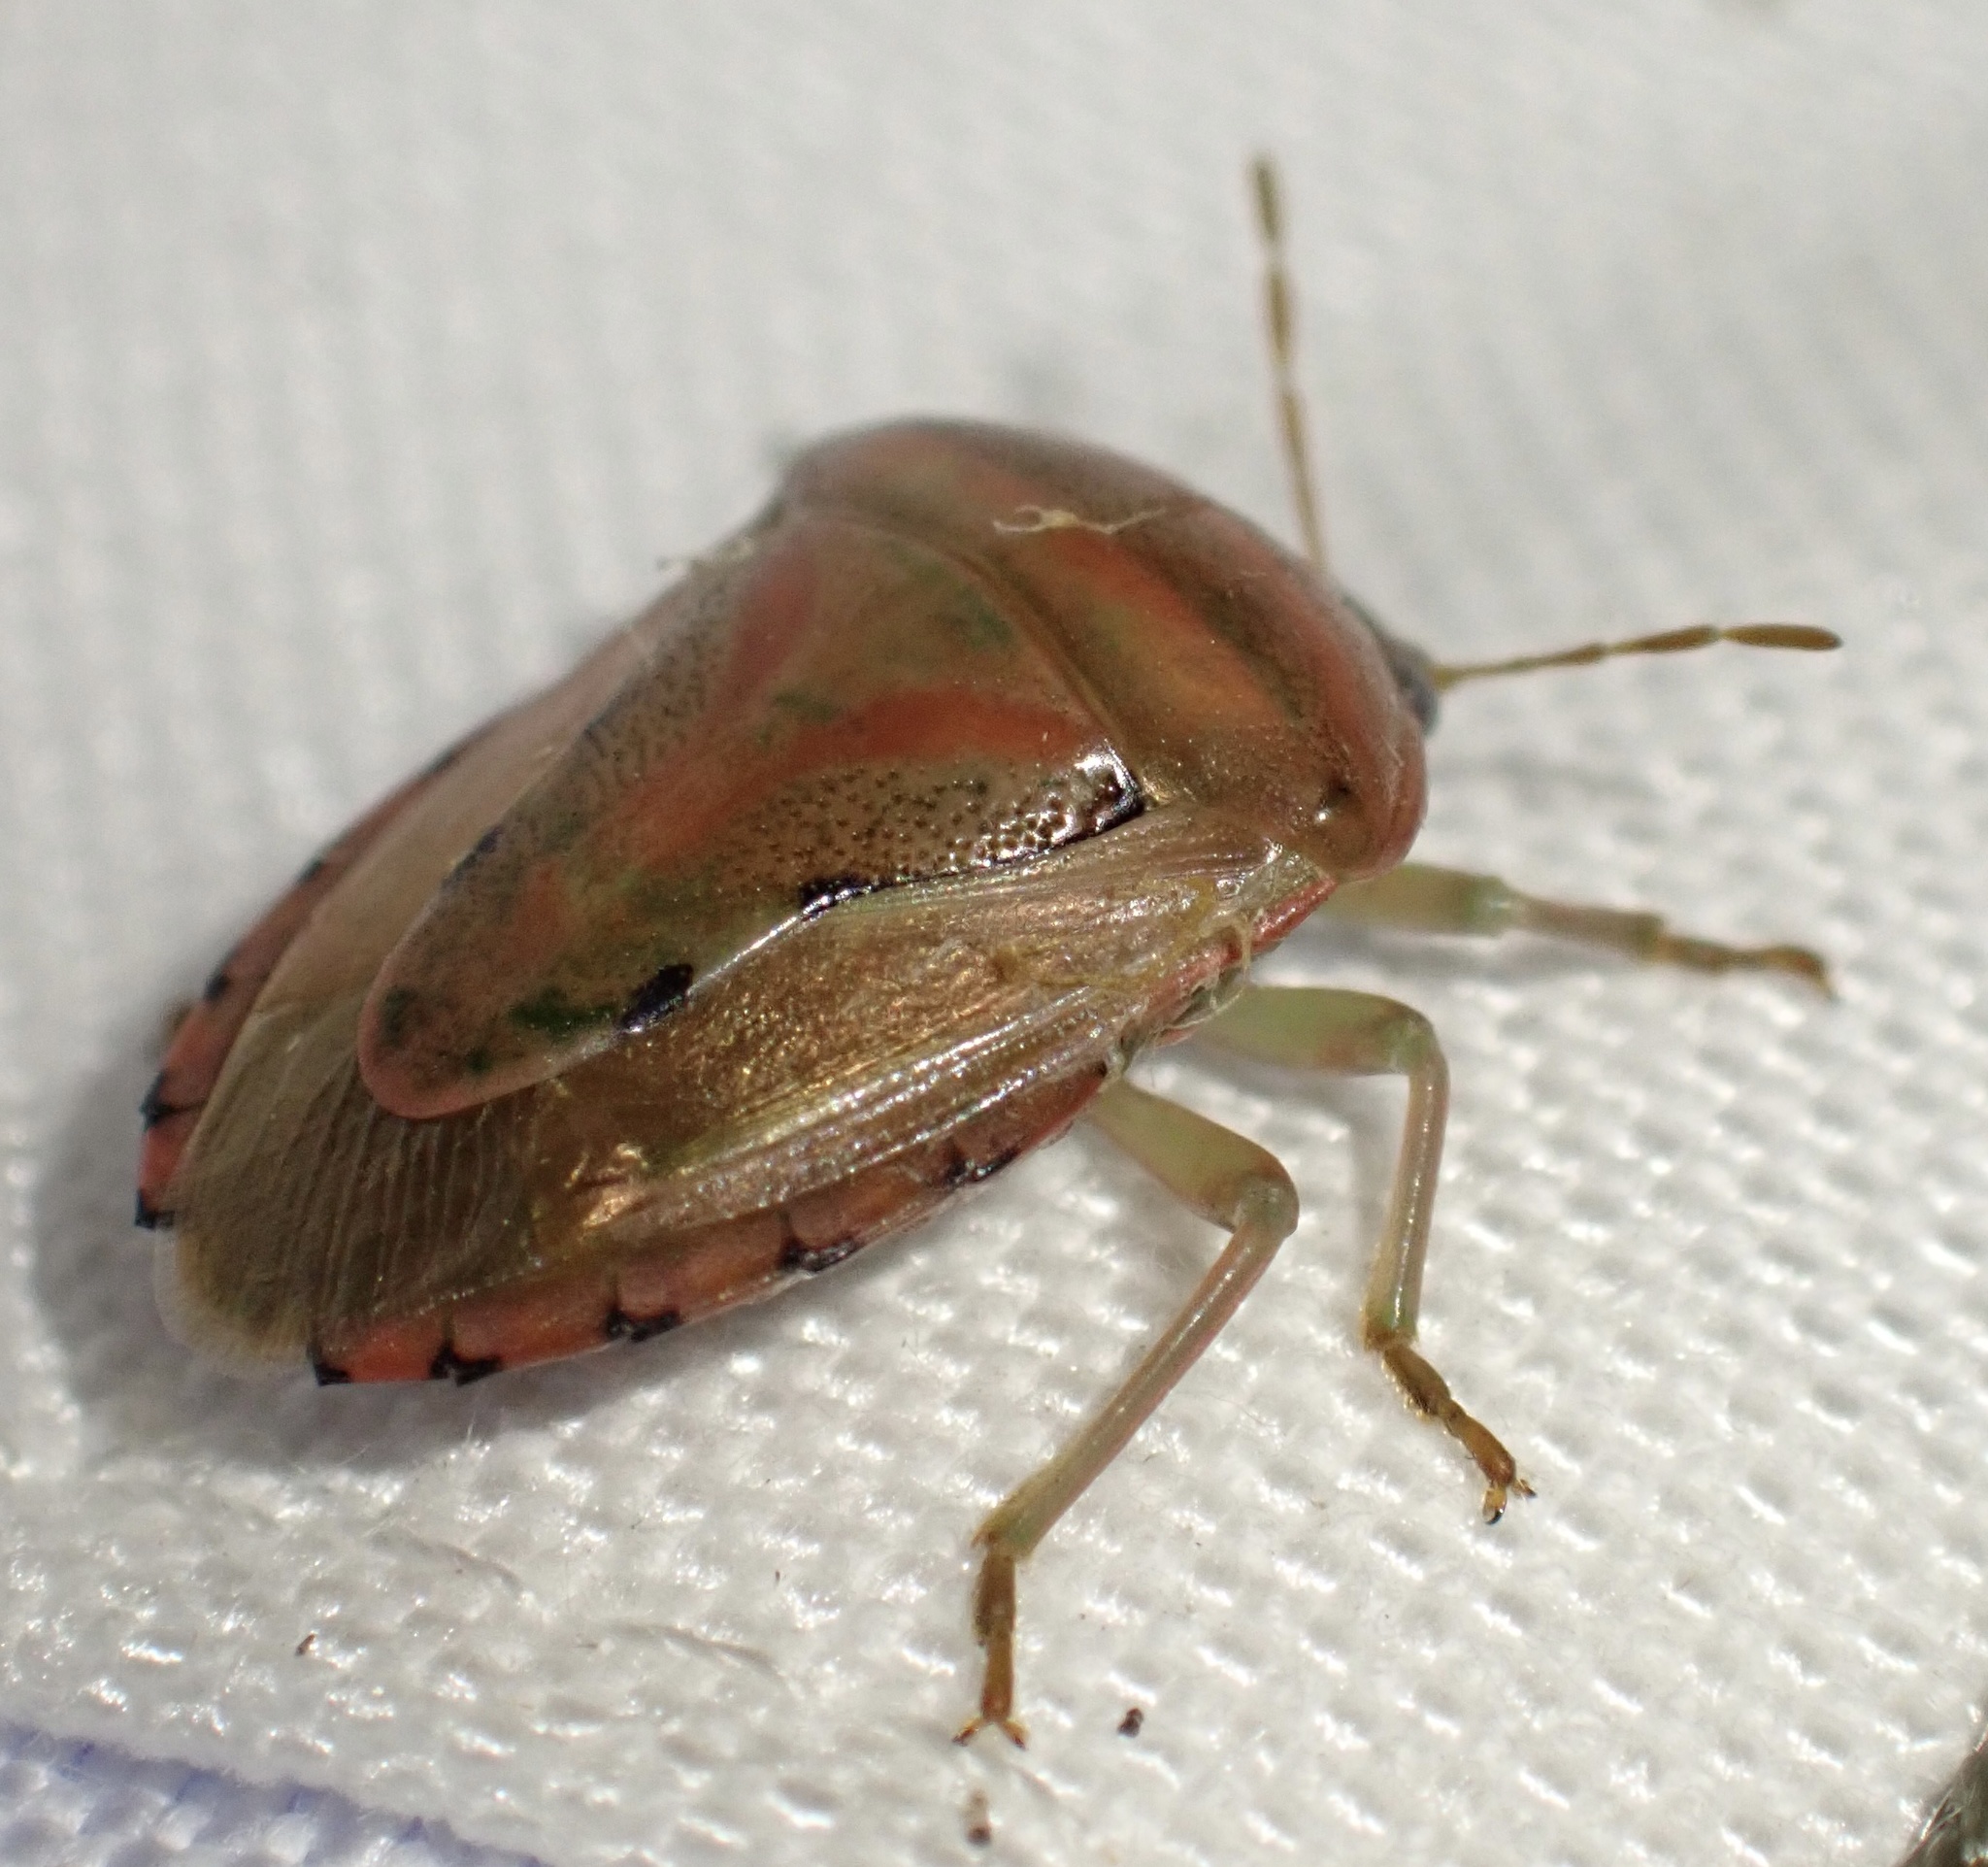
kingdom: Animalia
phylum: Arthropoda
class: Insecta
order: Hemiptera
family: Acanthosomatidae
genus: Lindbergicoris
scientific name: Lindbergicoris Platacantha lutea
